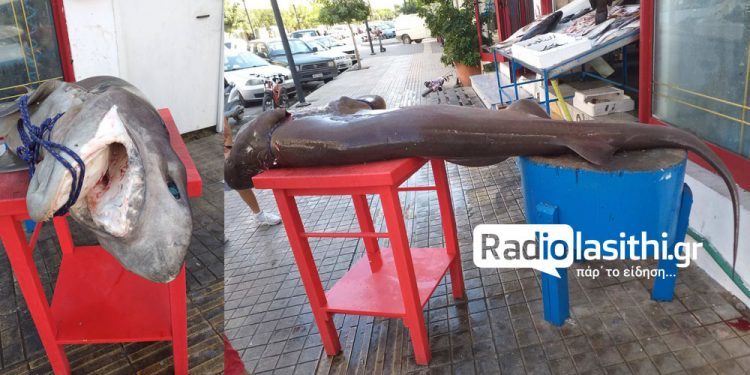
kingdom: Animalia
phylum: Chordata
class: Elasmobranchii
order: Hexanchiformes
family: Hexanchidae
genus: Hexanchus
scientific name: Hexanchus griseus
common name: Bluntnose sixgill shark
